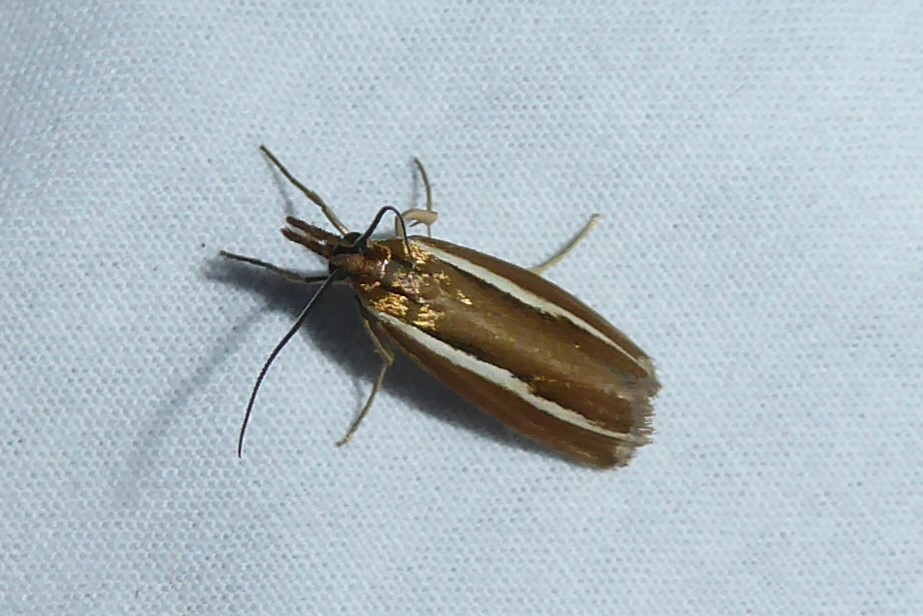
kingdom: Animalia
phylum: Arthropoda
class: Insecta
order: Lepidoptera
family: Crambidae
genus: Orocrambus
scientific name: Orocrambus melitastes
